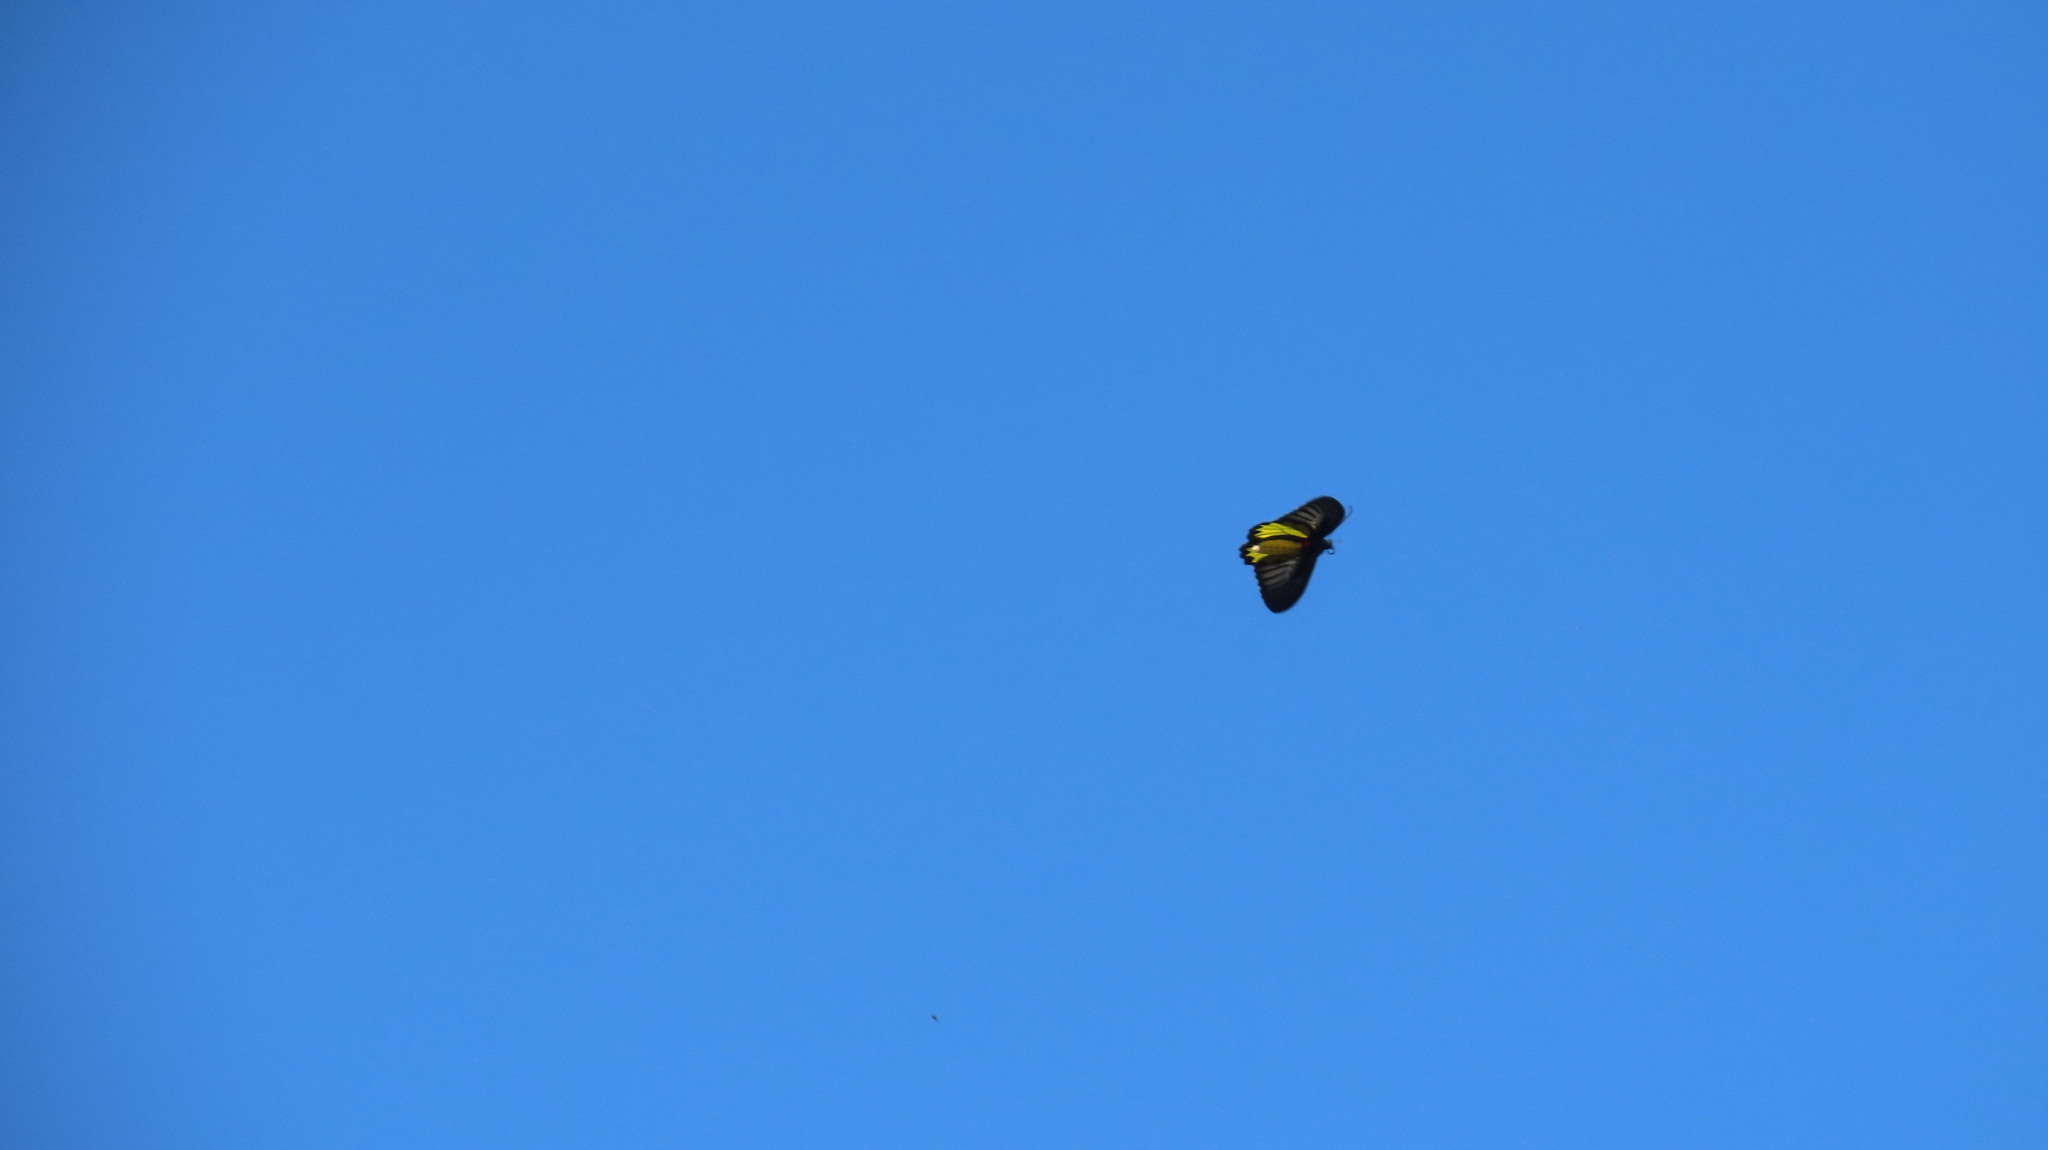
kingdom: Animalia
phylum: Arthropoda
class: Insecta
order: Lepidoptera
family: Papilionidae
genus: Troides
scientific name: Troides minos
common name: Malabar birdwing
